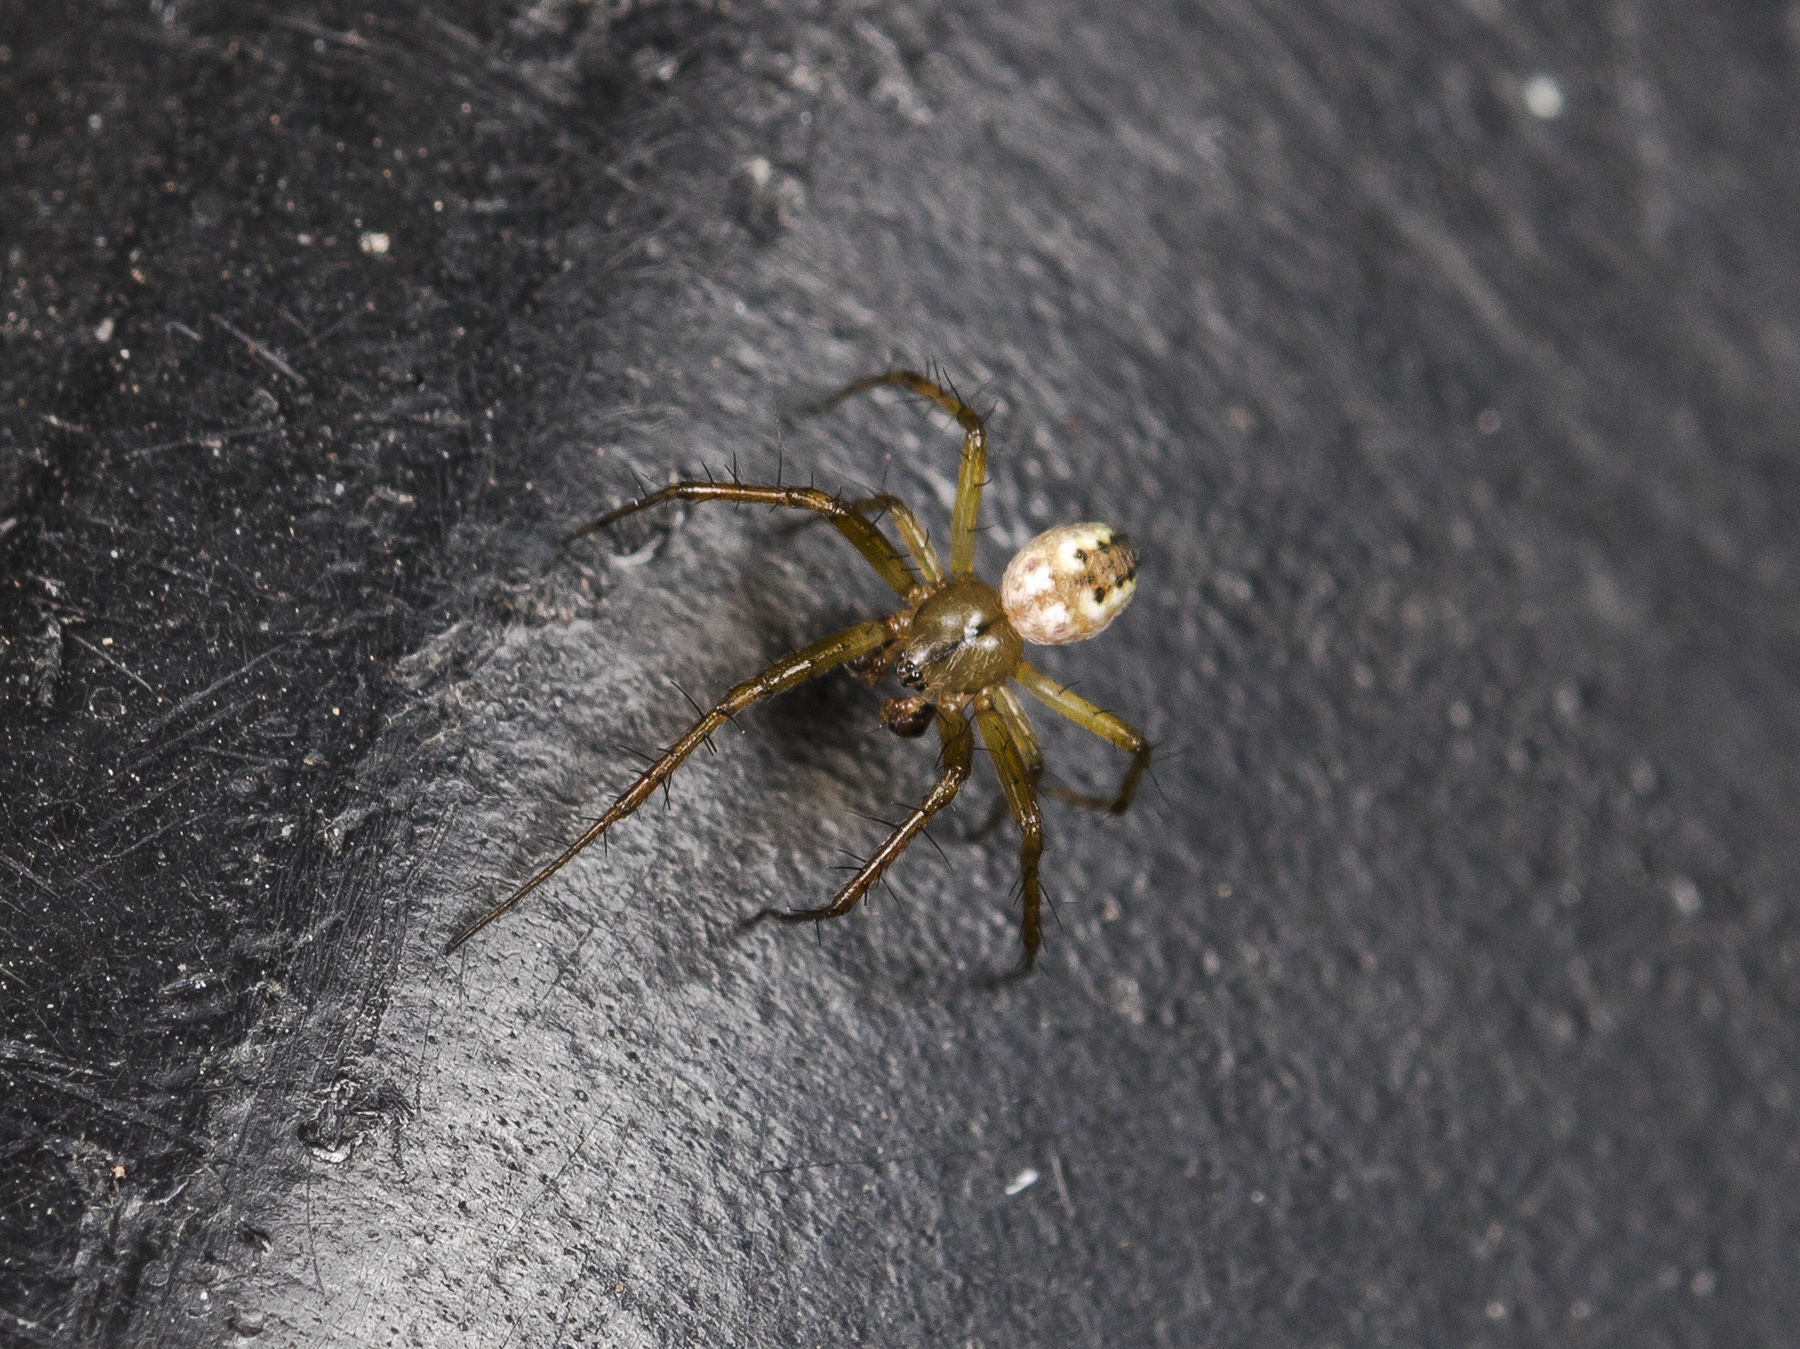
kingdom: Animalia
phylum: Arthropoda
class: Arachnida
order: Araneae
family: Araneidae
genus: Mangora
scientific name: Mangora acalypha
